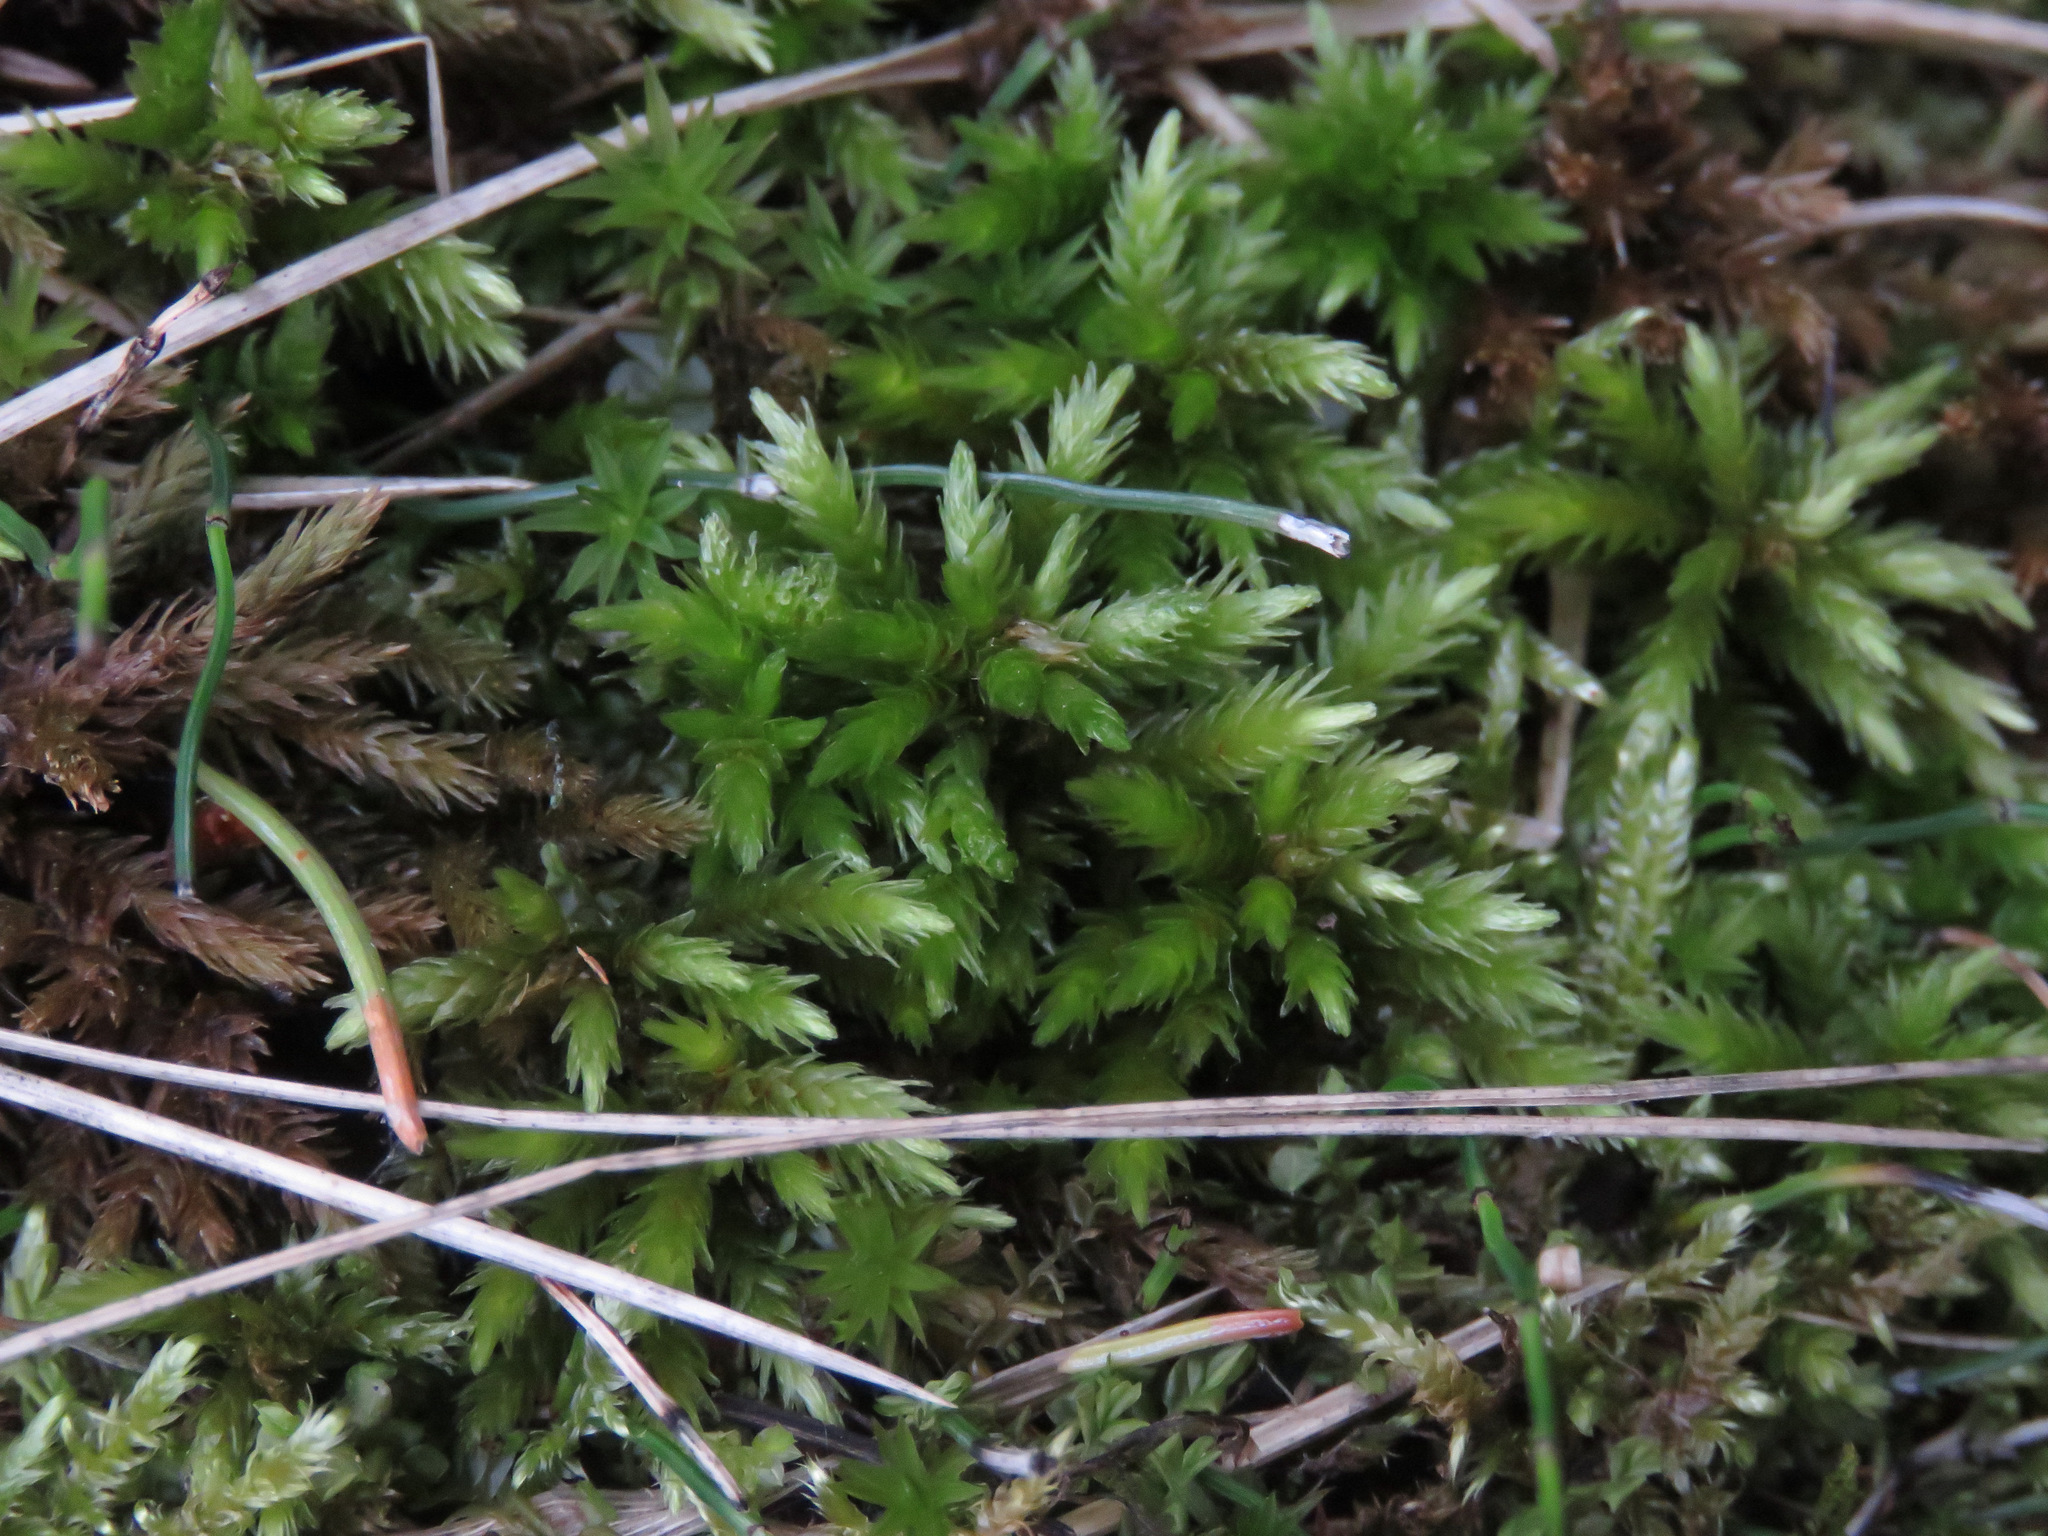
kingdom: Plantae
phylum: Bryophyta
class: Bryopsida
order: Hypnales
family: Climaciaceae
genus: Climacium
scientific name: Climacium dendroides
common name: Northern tree moss
